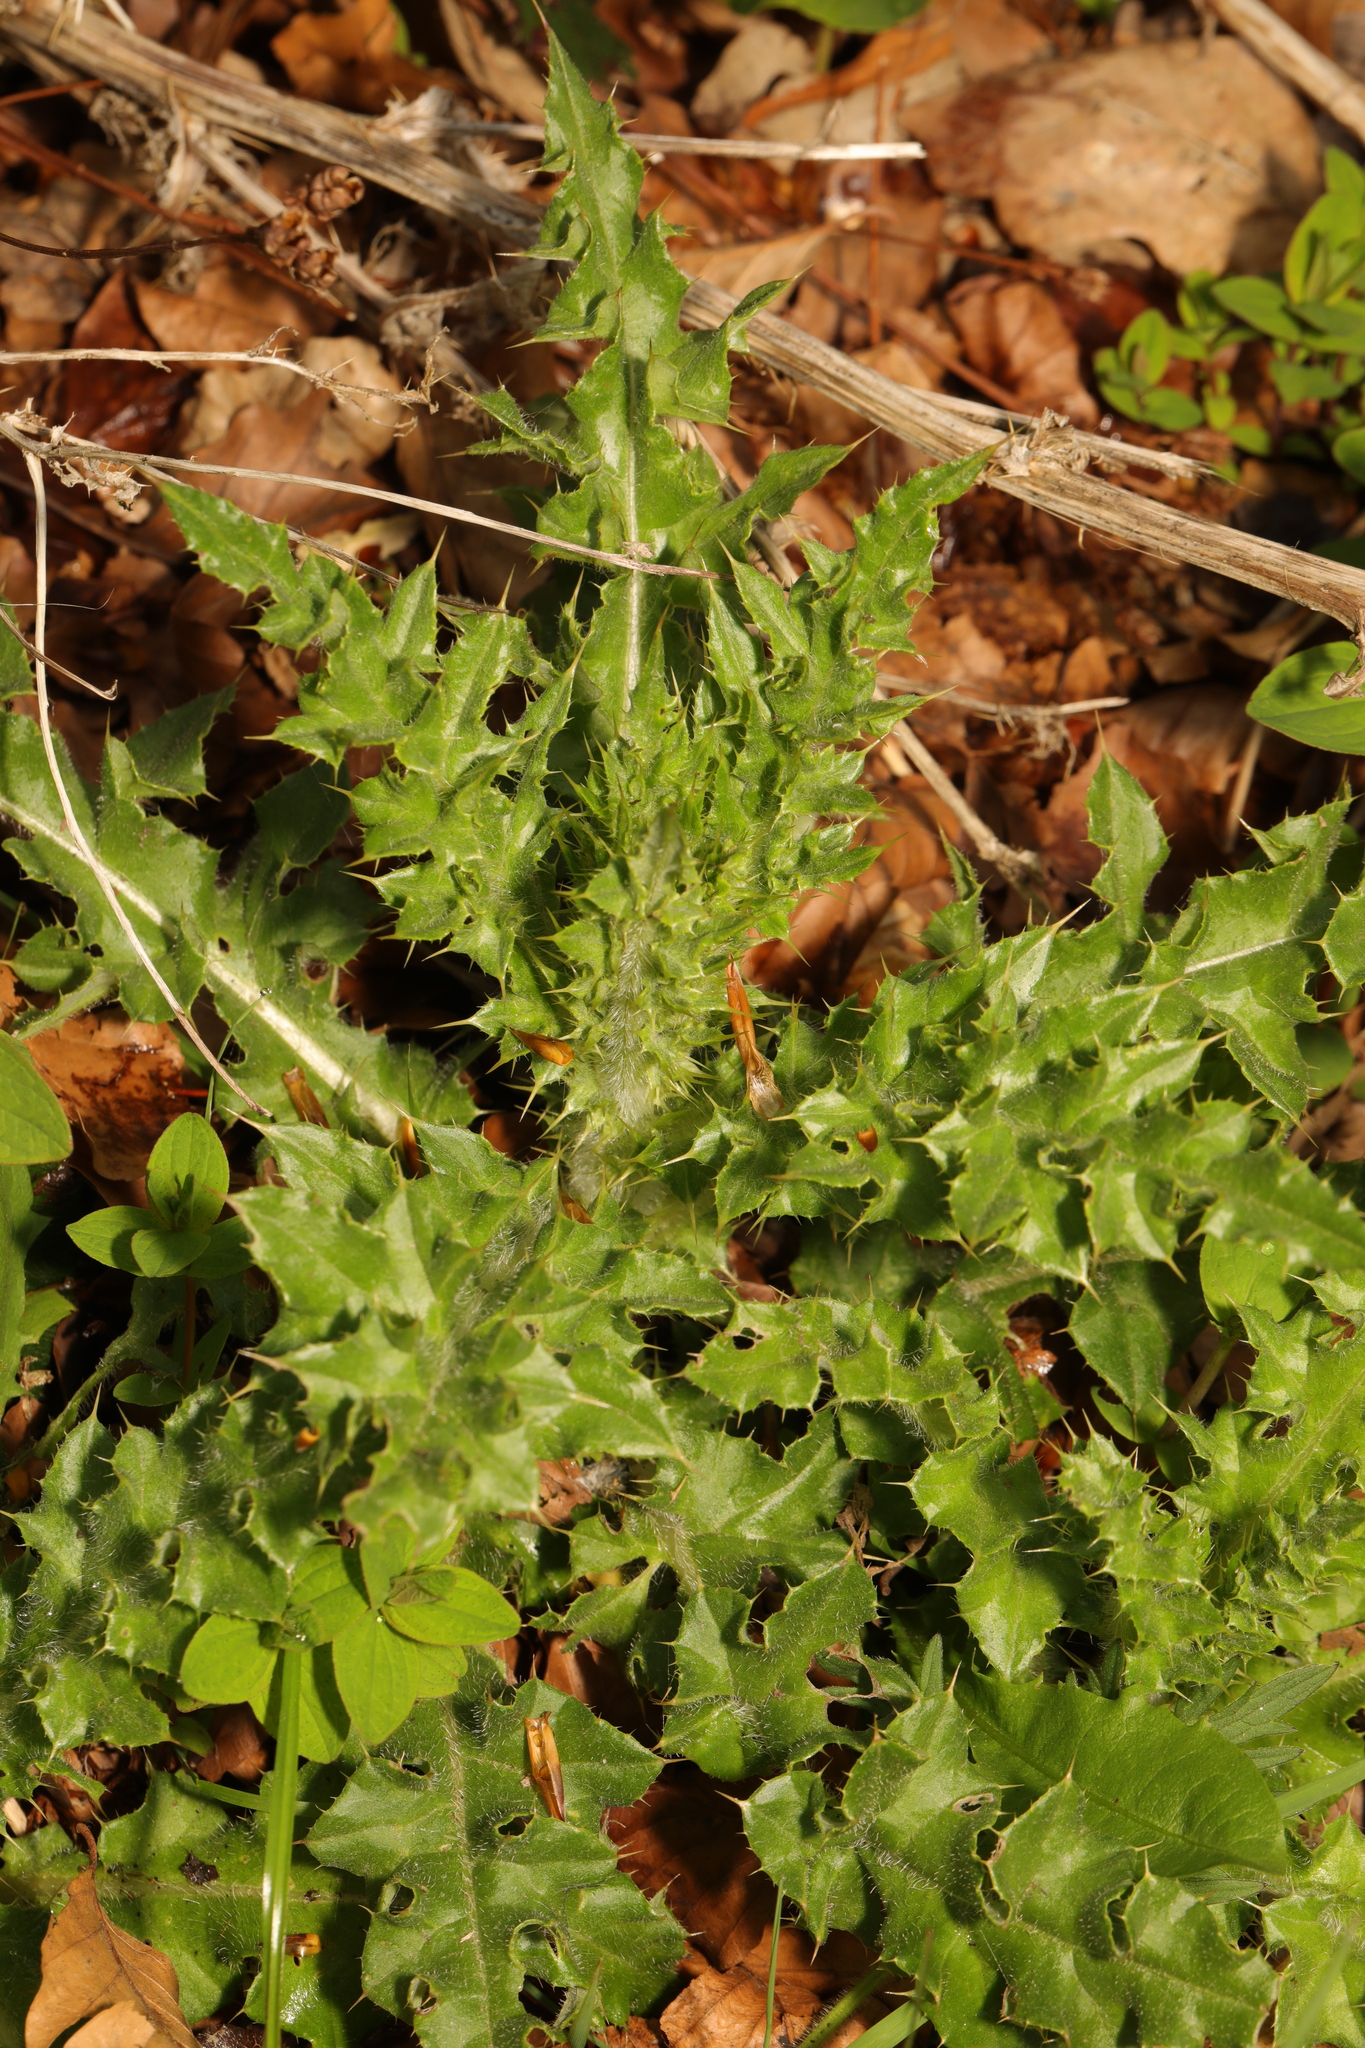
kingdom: Plantae
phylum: Tracheophyta
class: Magnoliopsida
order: Asterales
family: Asteraceae
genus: Cirsium
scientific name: Cirsium arvense
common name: Creeping thistle
